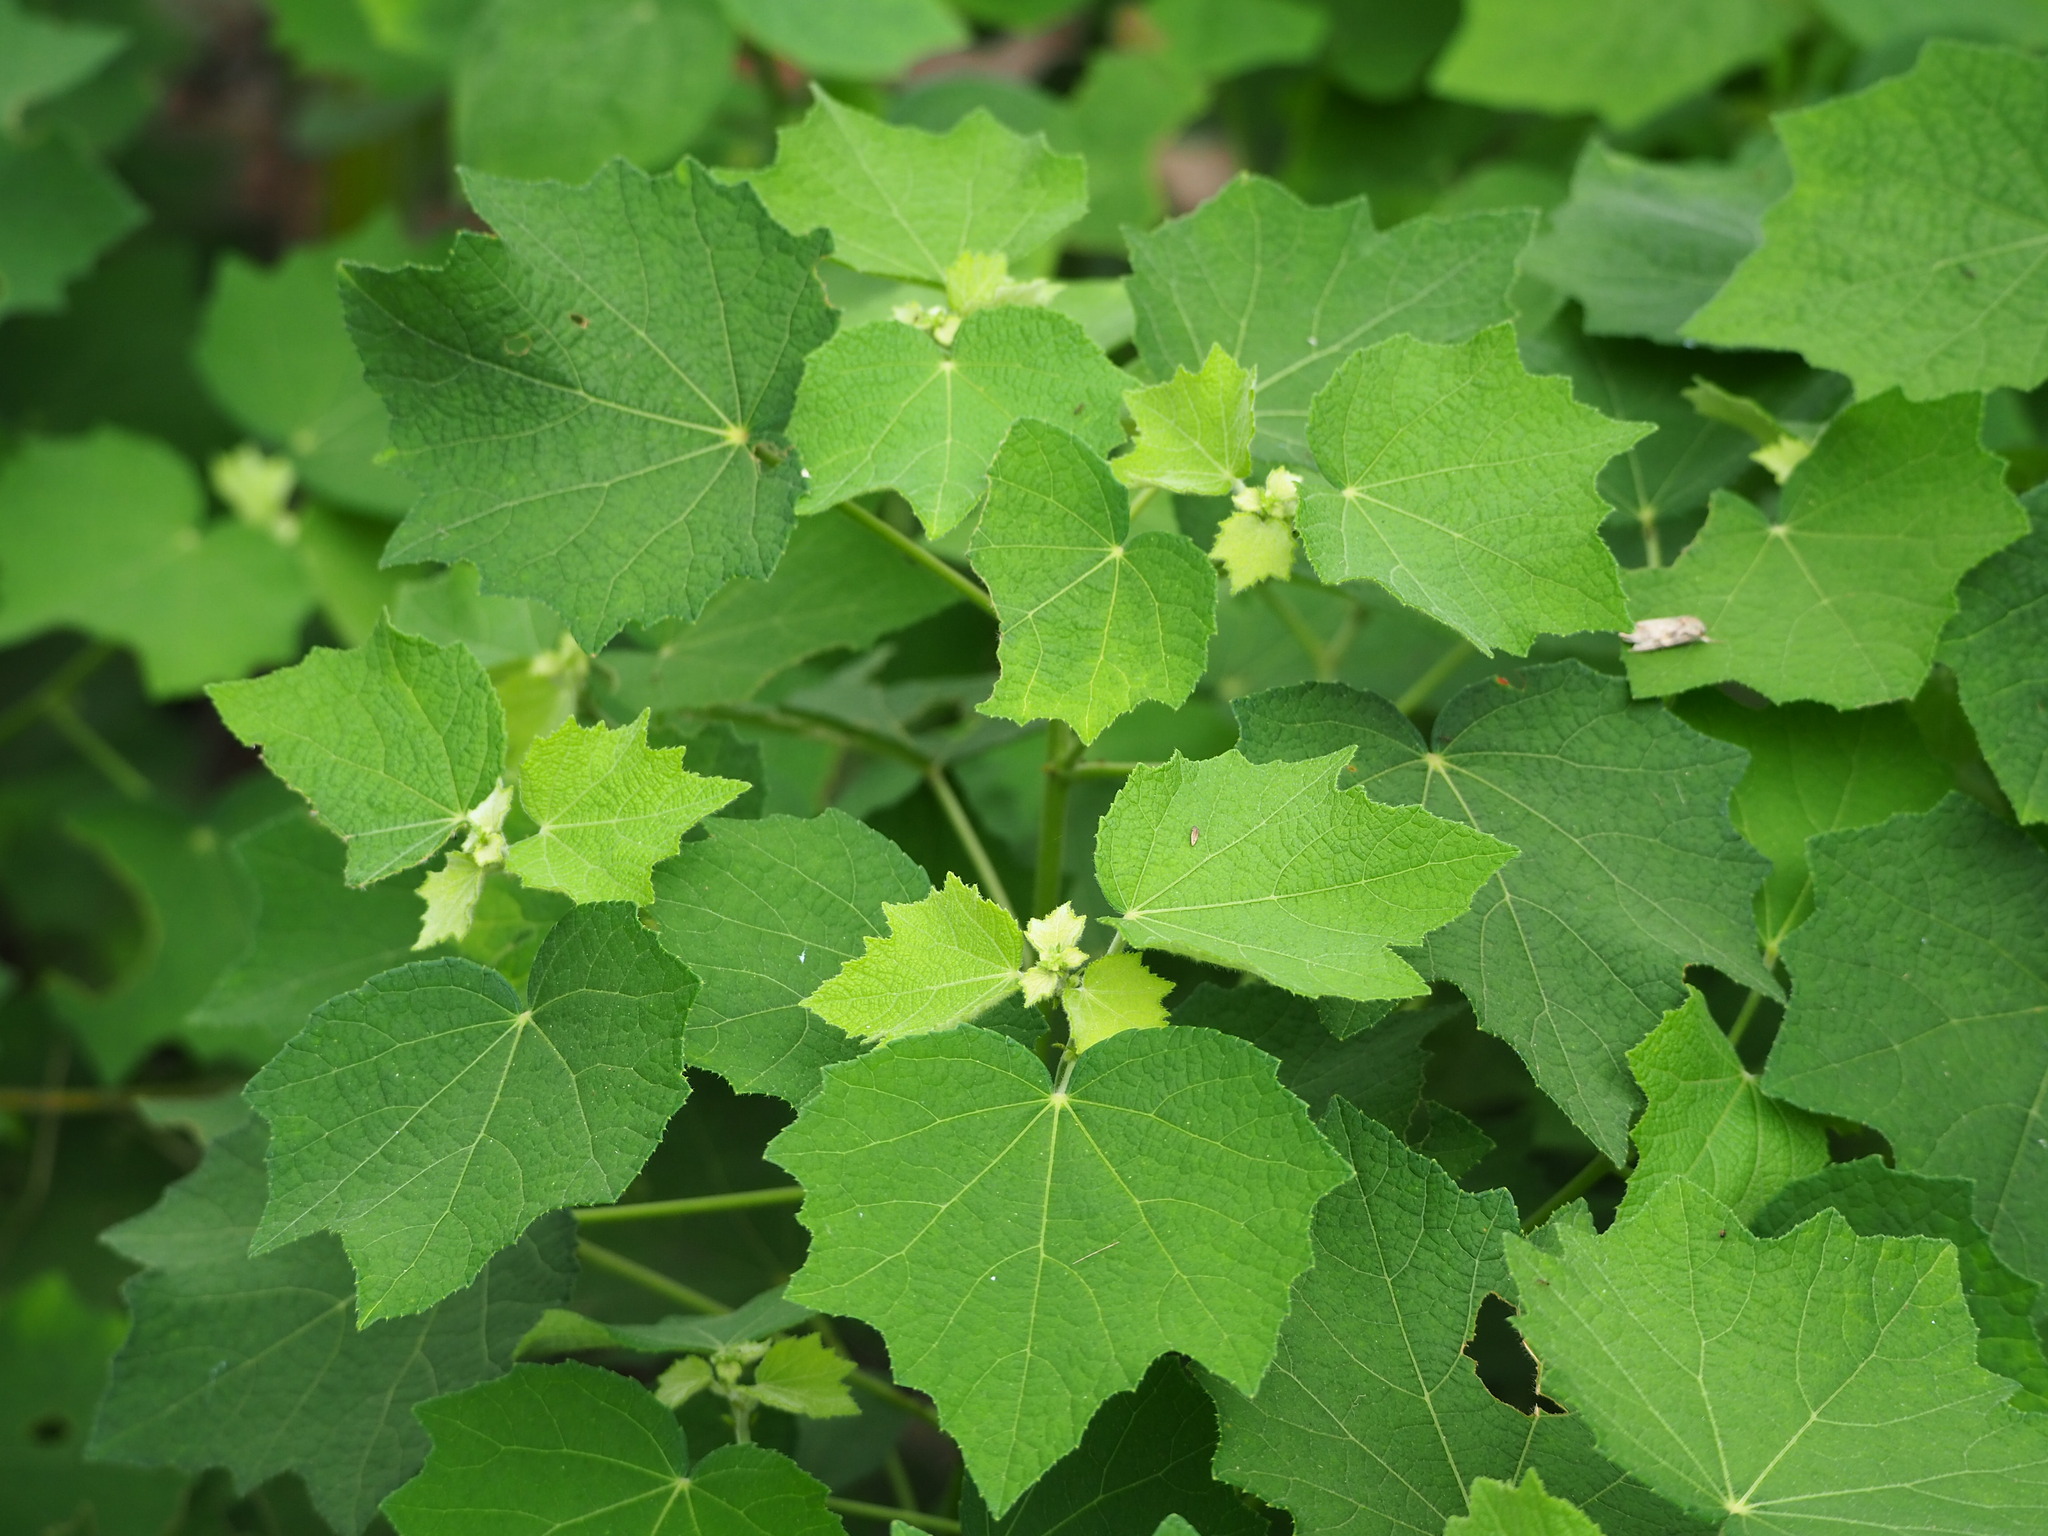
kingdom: Plantae
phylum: Tracheophyta
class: Magnoliopsida
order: Malvales
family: Malvaceae
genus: Urena
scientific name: Urena lobata
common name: Caesarweed
